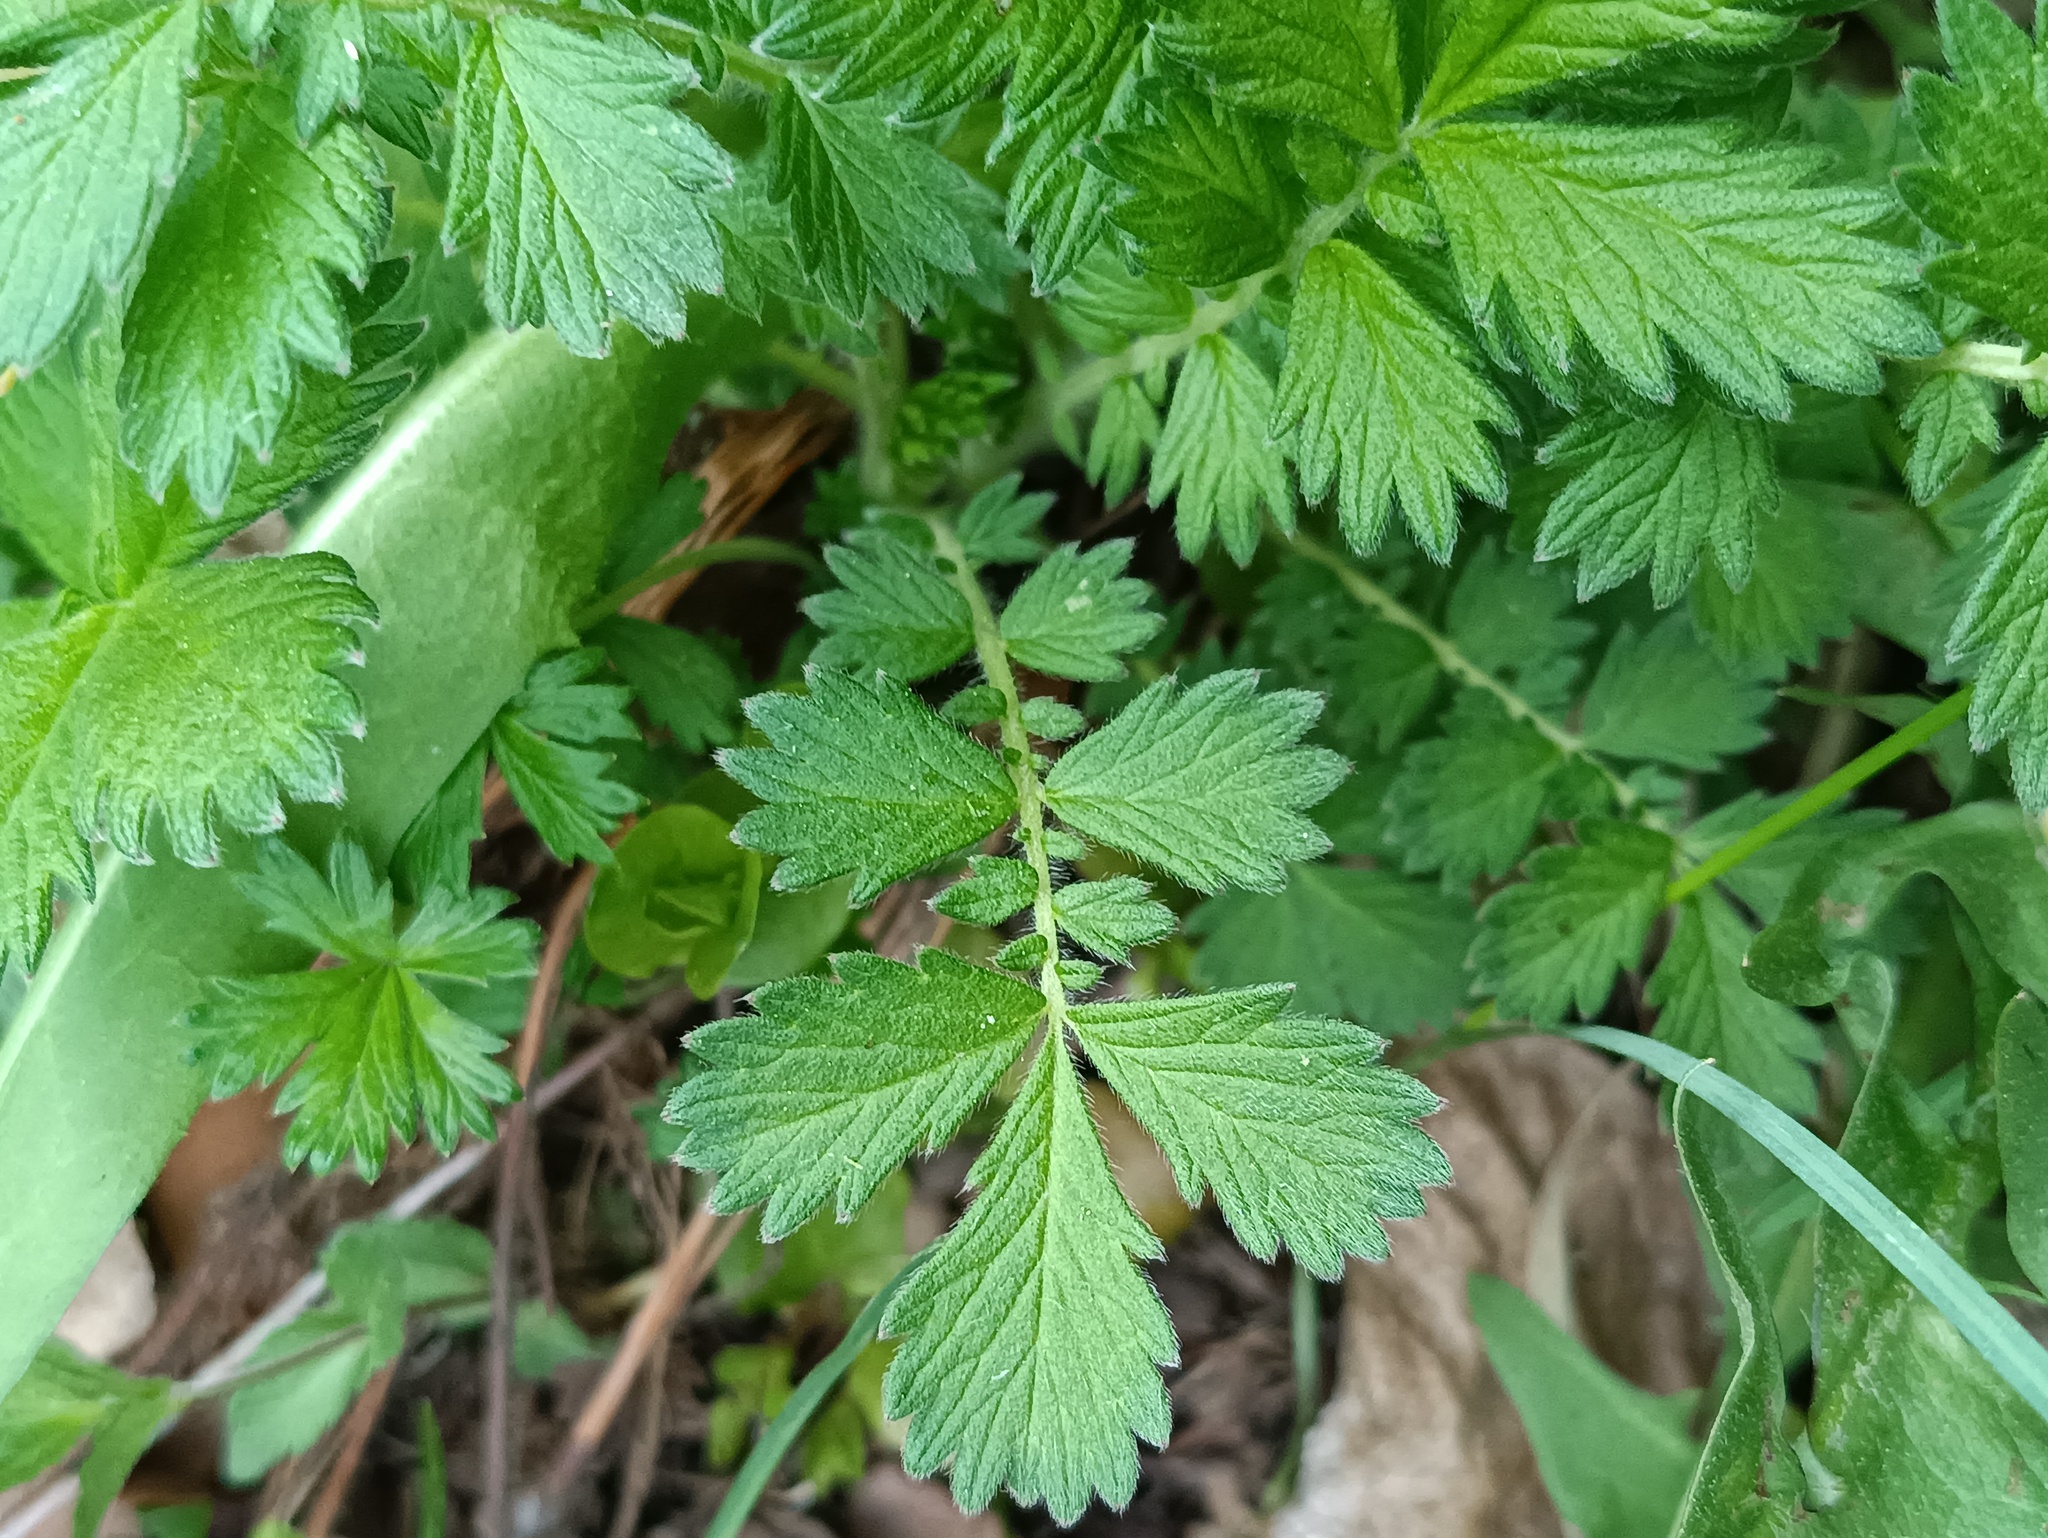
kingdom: Plantae
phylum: Tracheophyta
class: Magnoliopsida
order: Rosales
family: Rosaceae
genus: Agrimonia
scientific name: Agrimonia eupatoria
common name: Agrimony
